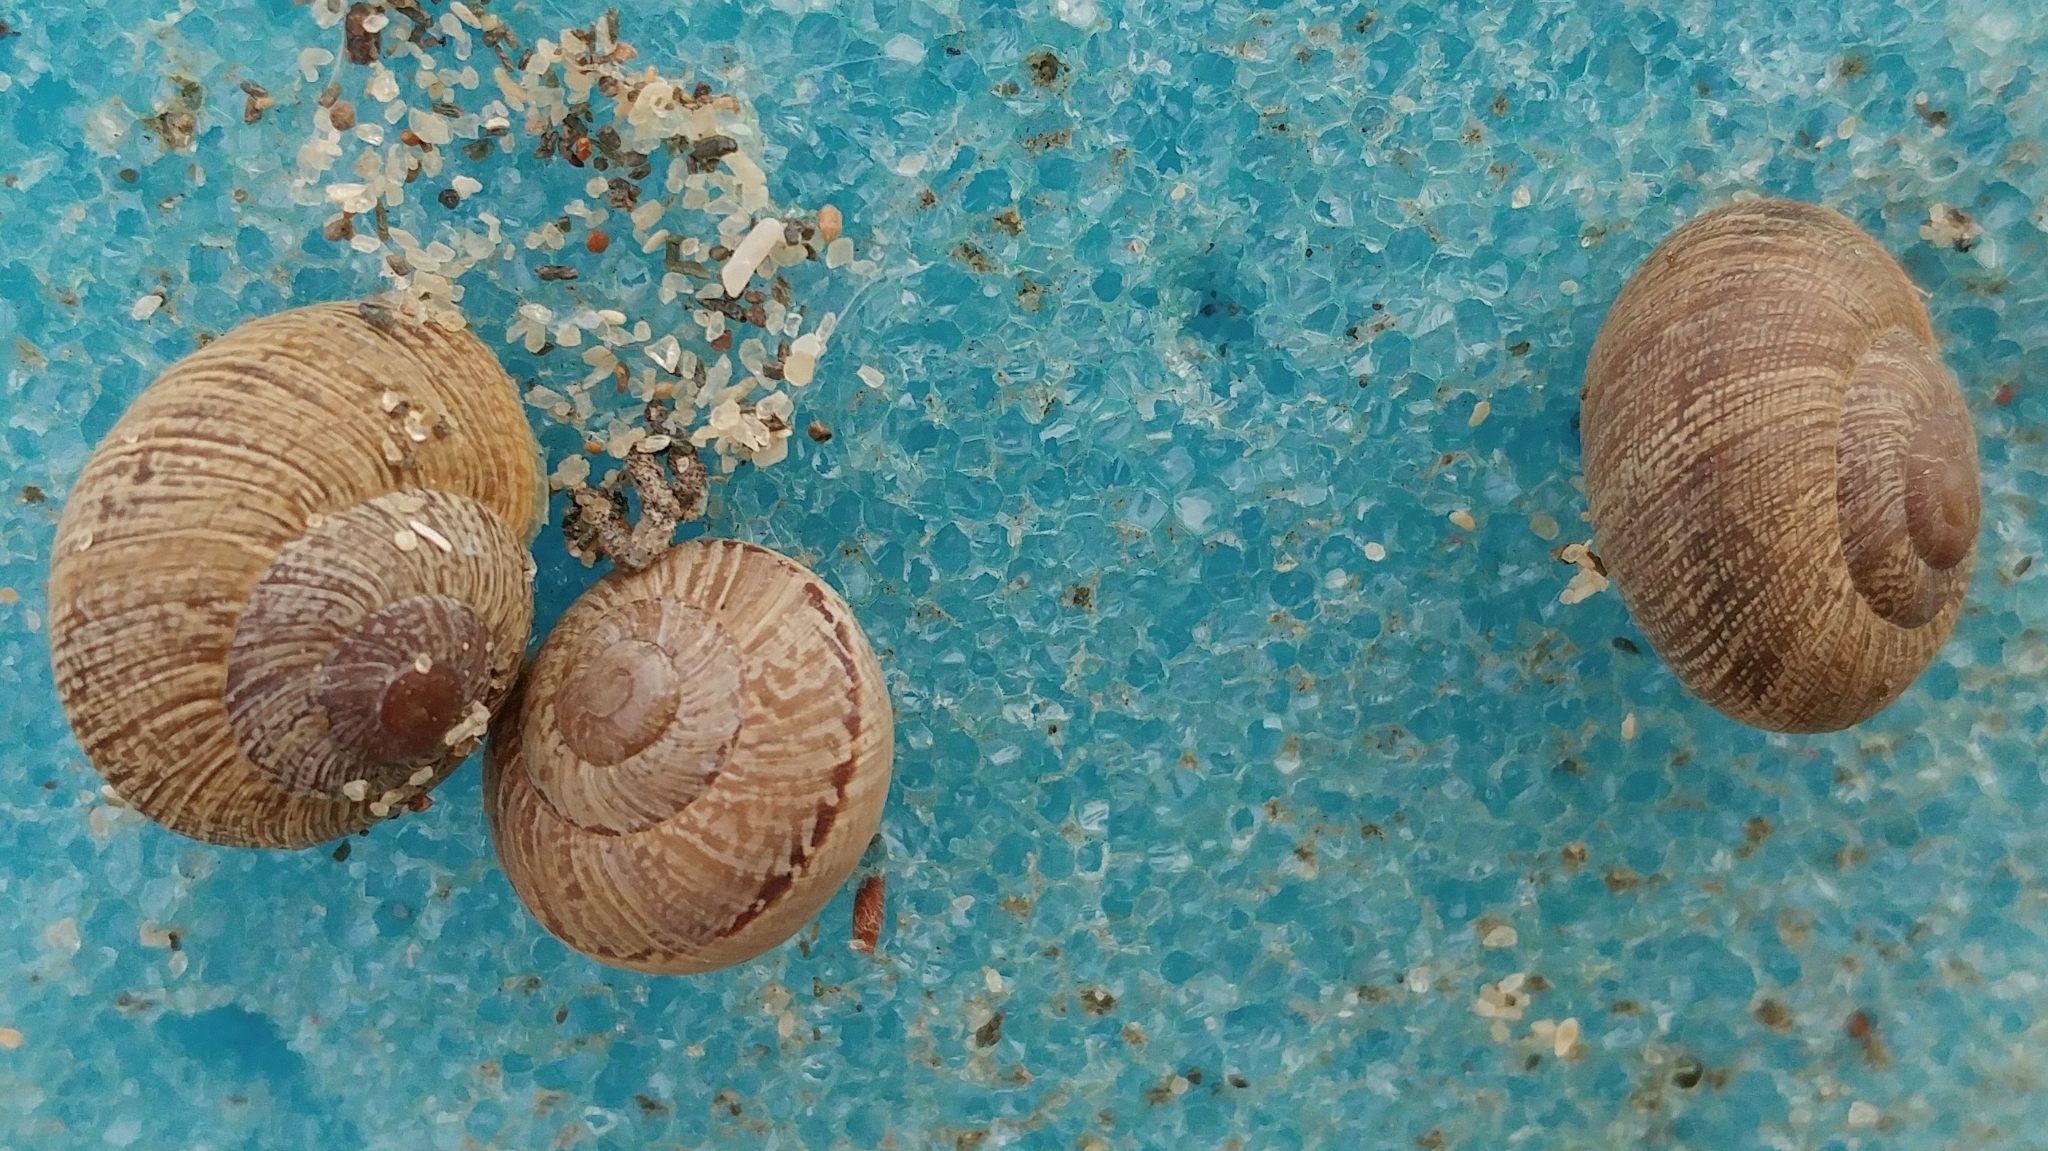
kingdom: Animalia
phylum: Mollusca
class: Gastropoda
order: Stylommatophora
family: Xanthonychidae
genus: Xerarionta
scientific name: Xerarionta intercisa
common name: Plain cactus snail
